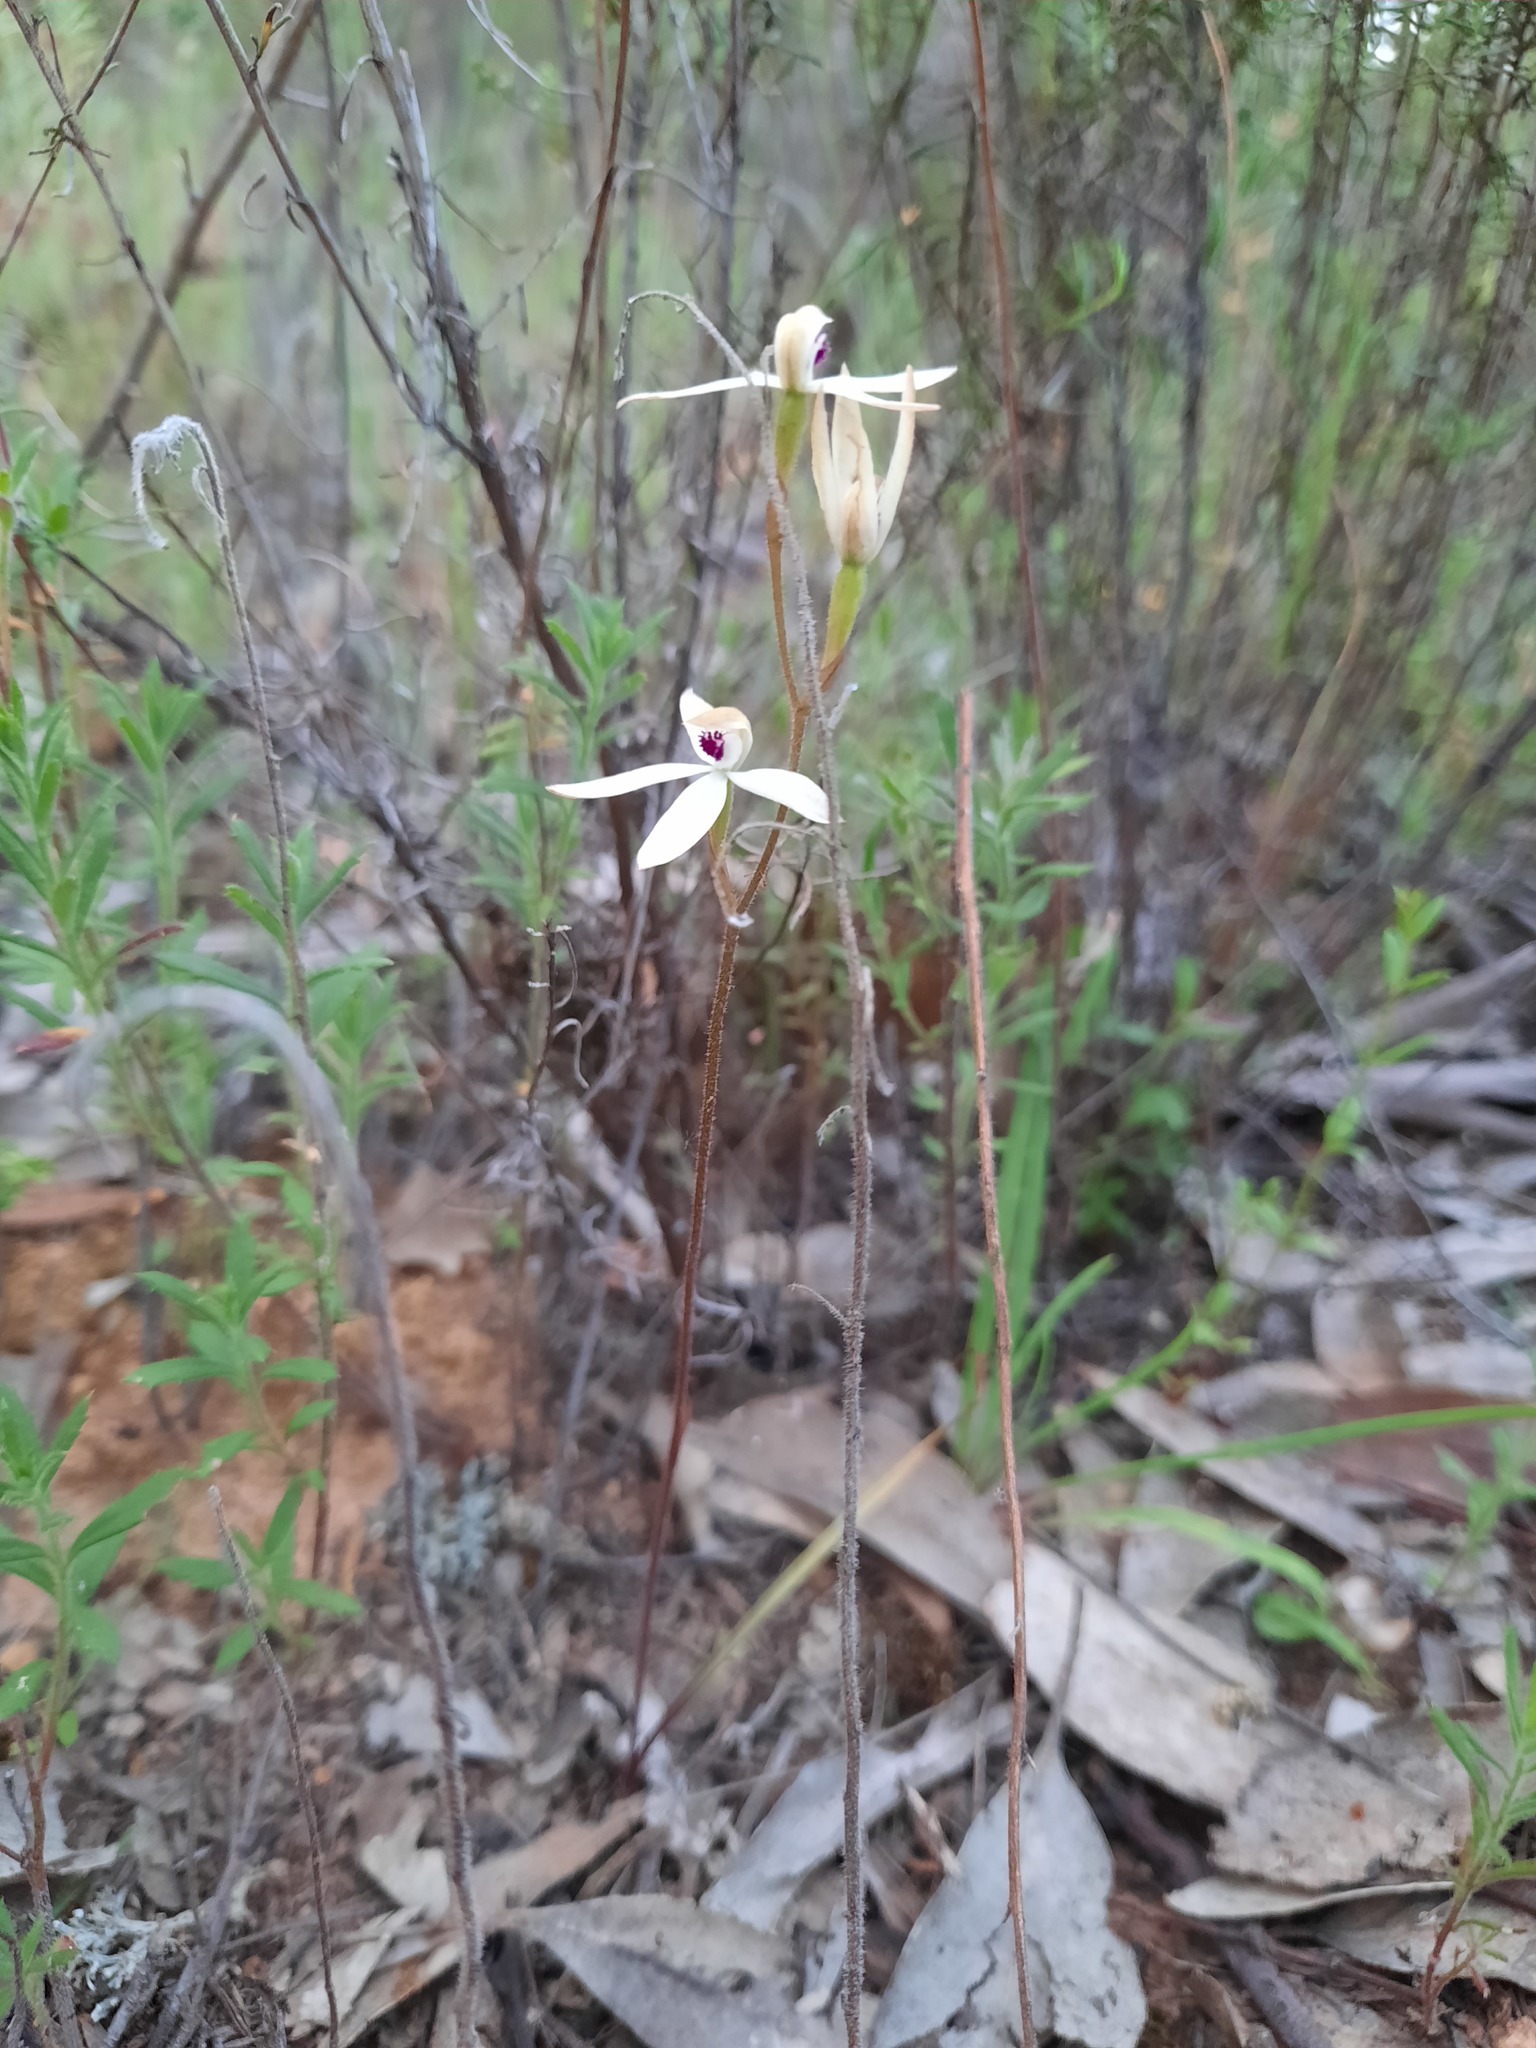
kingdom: Plantae
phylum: Tracheophyta
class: Liliopsida
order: Asparagales
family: Orchidaceae
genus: Caladenia
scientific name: Caladenia cucullata
